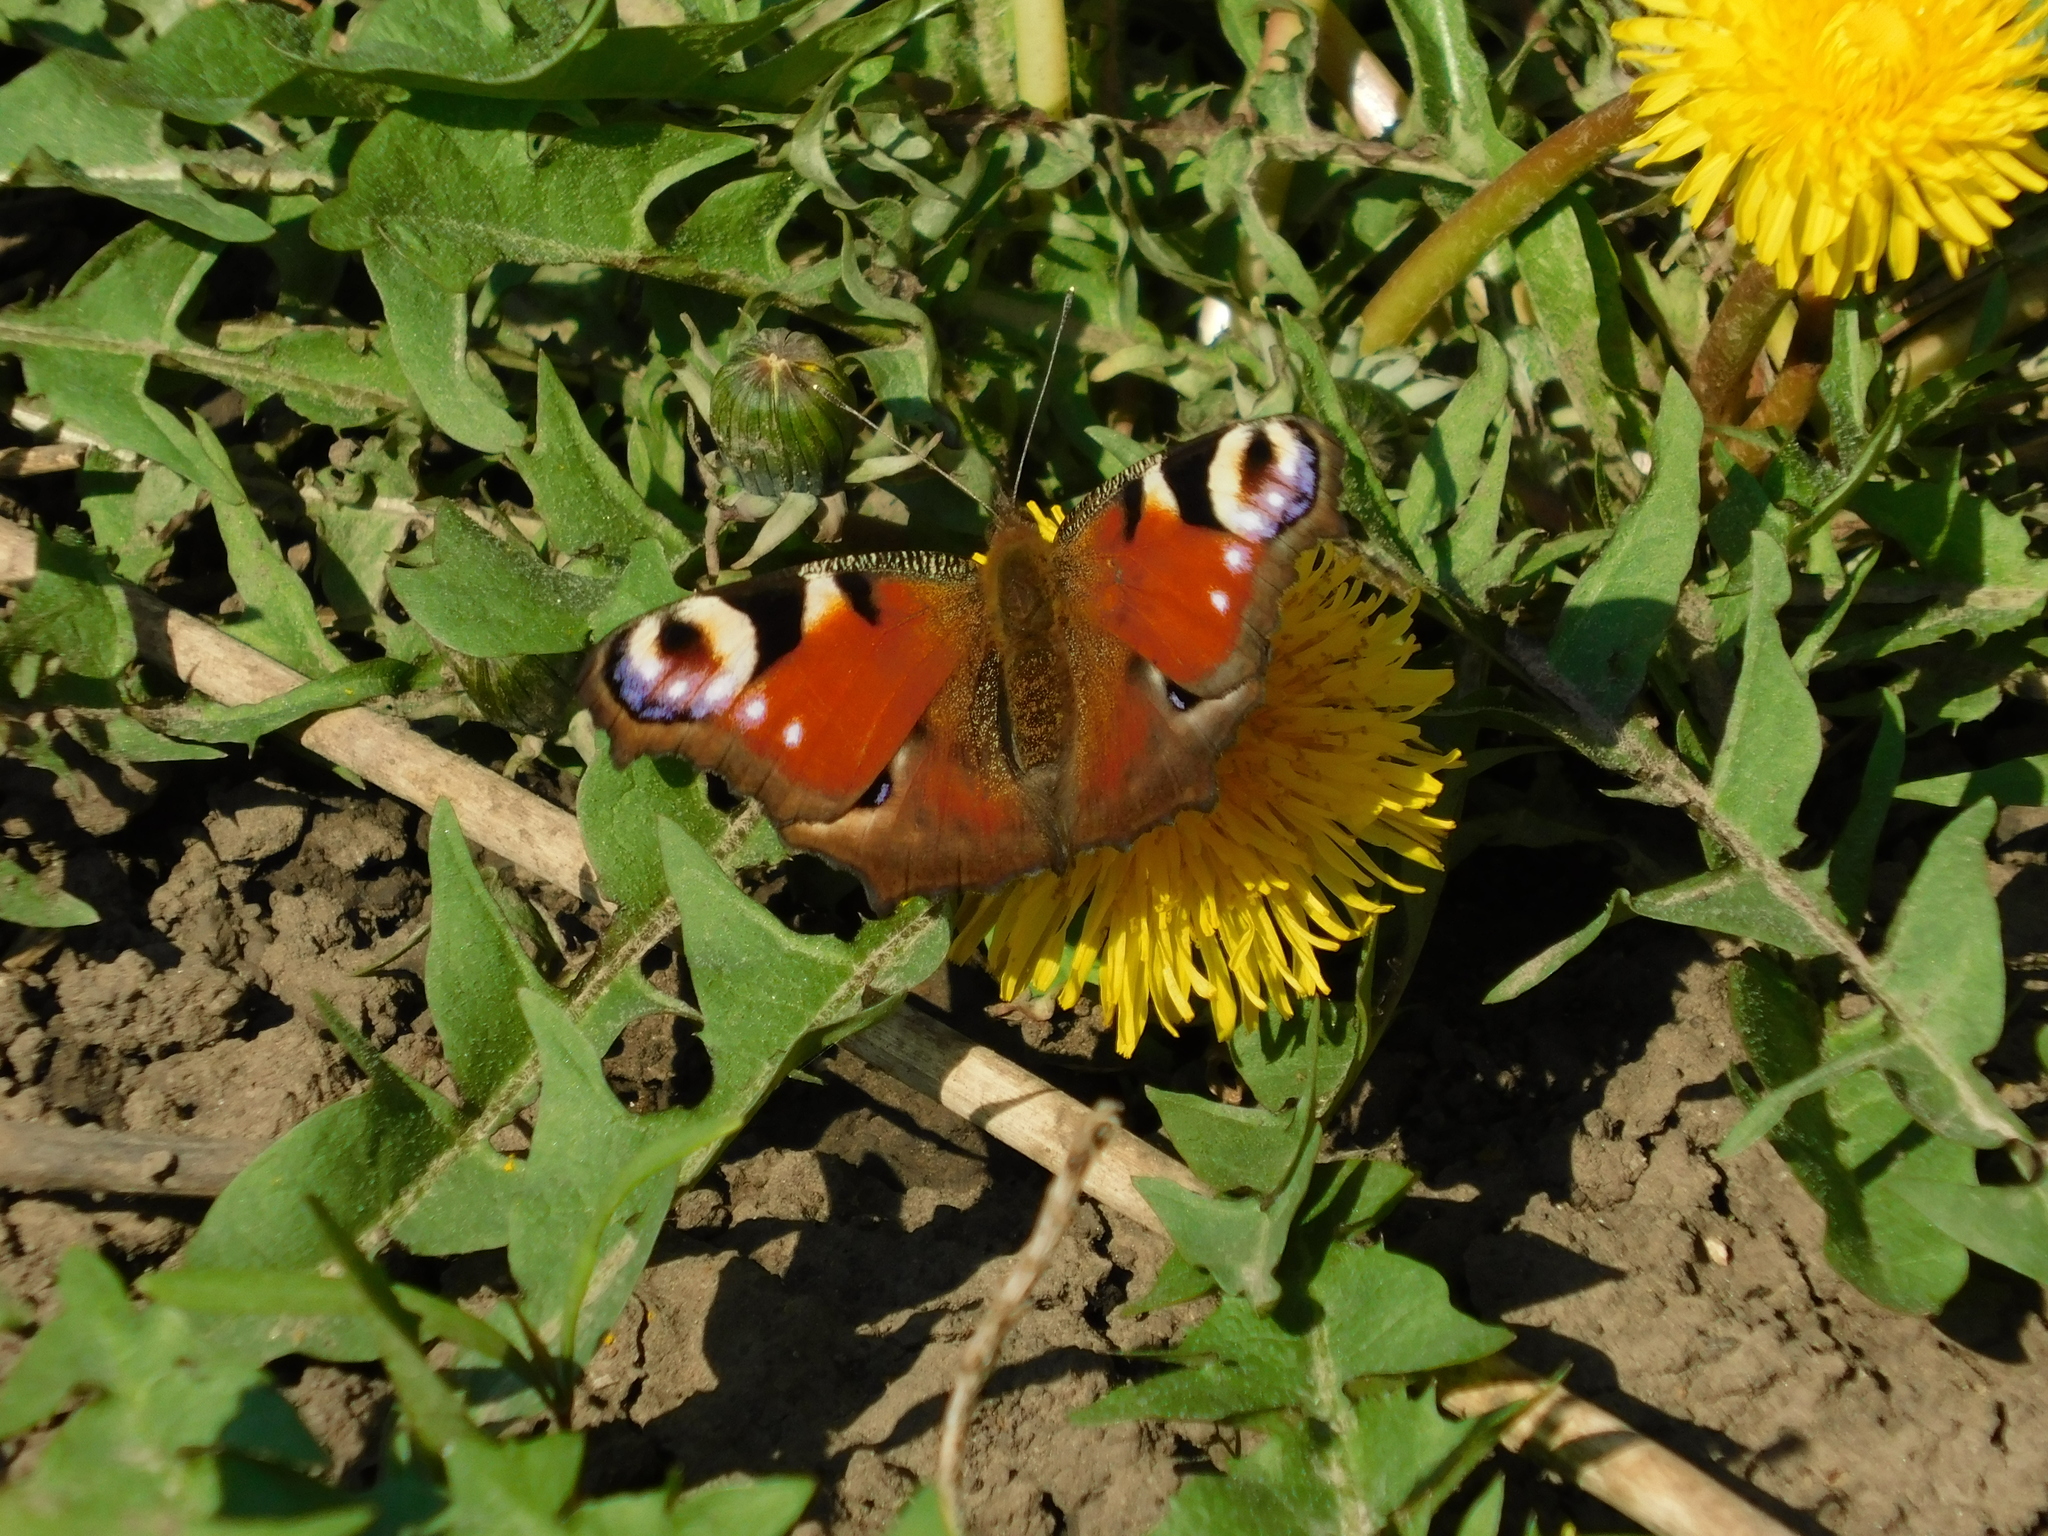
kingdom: Animalia
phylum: Arthropoda
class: Insecta
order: Lepidoptera
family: Nymphalidae
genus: Aglais
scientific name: Aglais io
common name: Peacock
